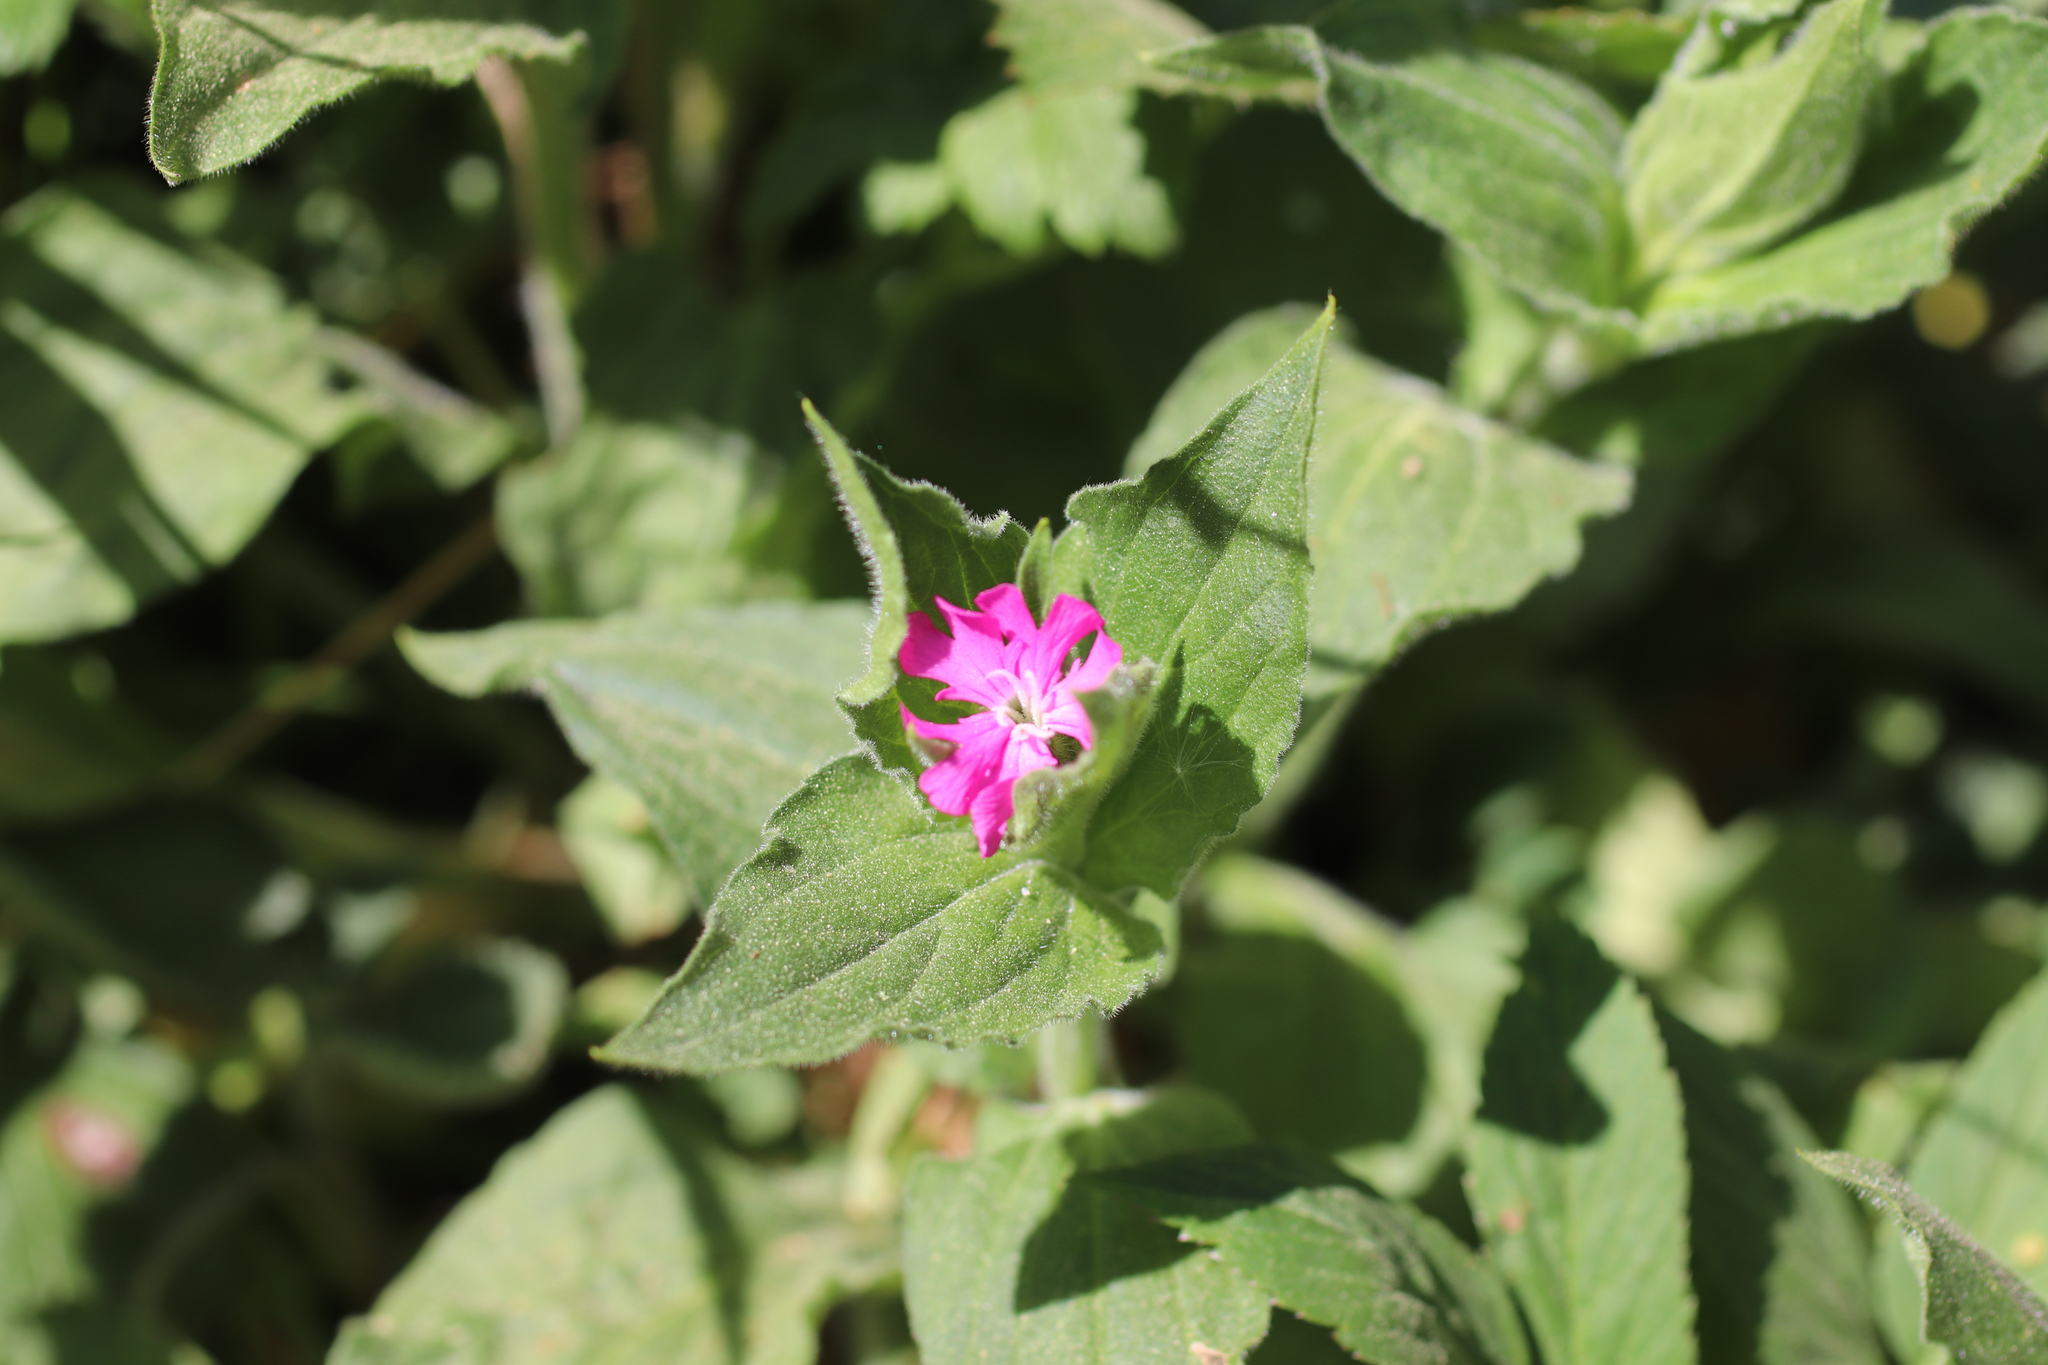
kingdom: Plantae
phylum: Tracheophyta
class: Magnoliopsida
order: Caryophyllales
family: Caryophyllaceae
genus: Silene
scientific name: Silene dioica
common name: Red campion
